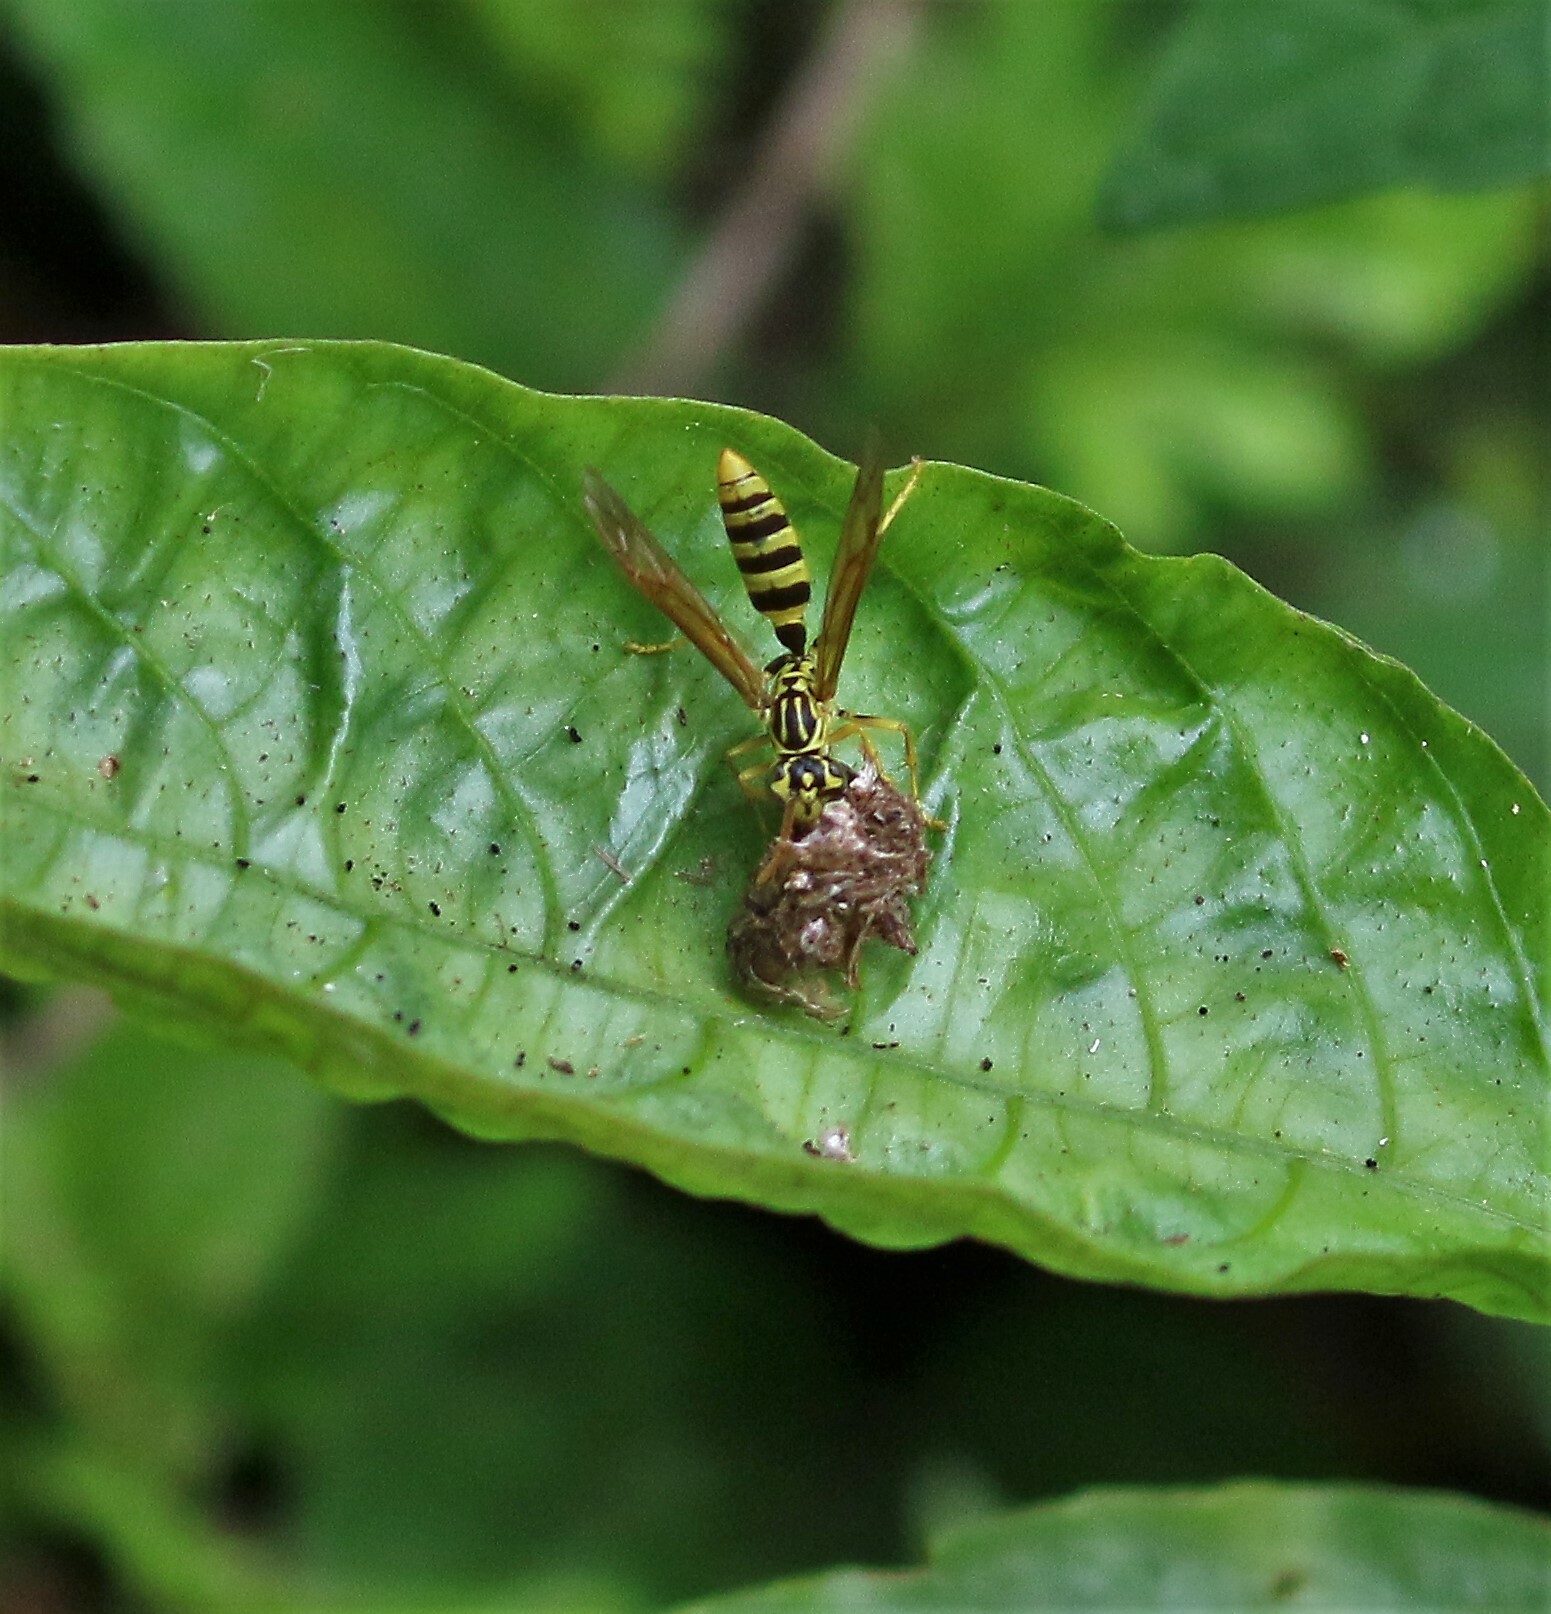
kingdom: Animalia
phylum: Arthropoda
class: Insecta
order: Hymenoptera
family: Vespidae
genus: Agelaia
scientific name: Agelaia areata
